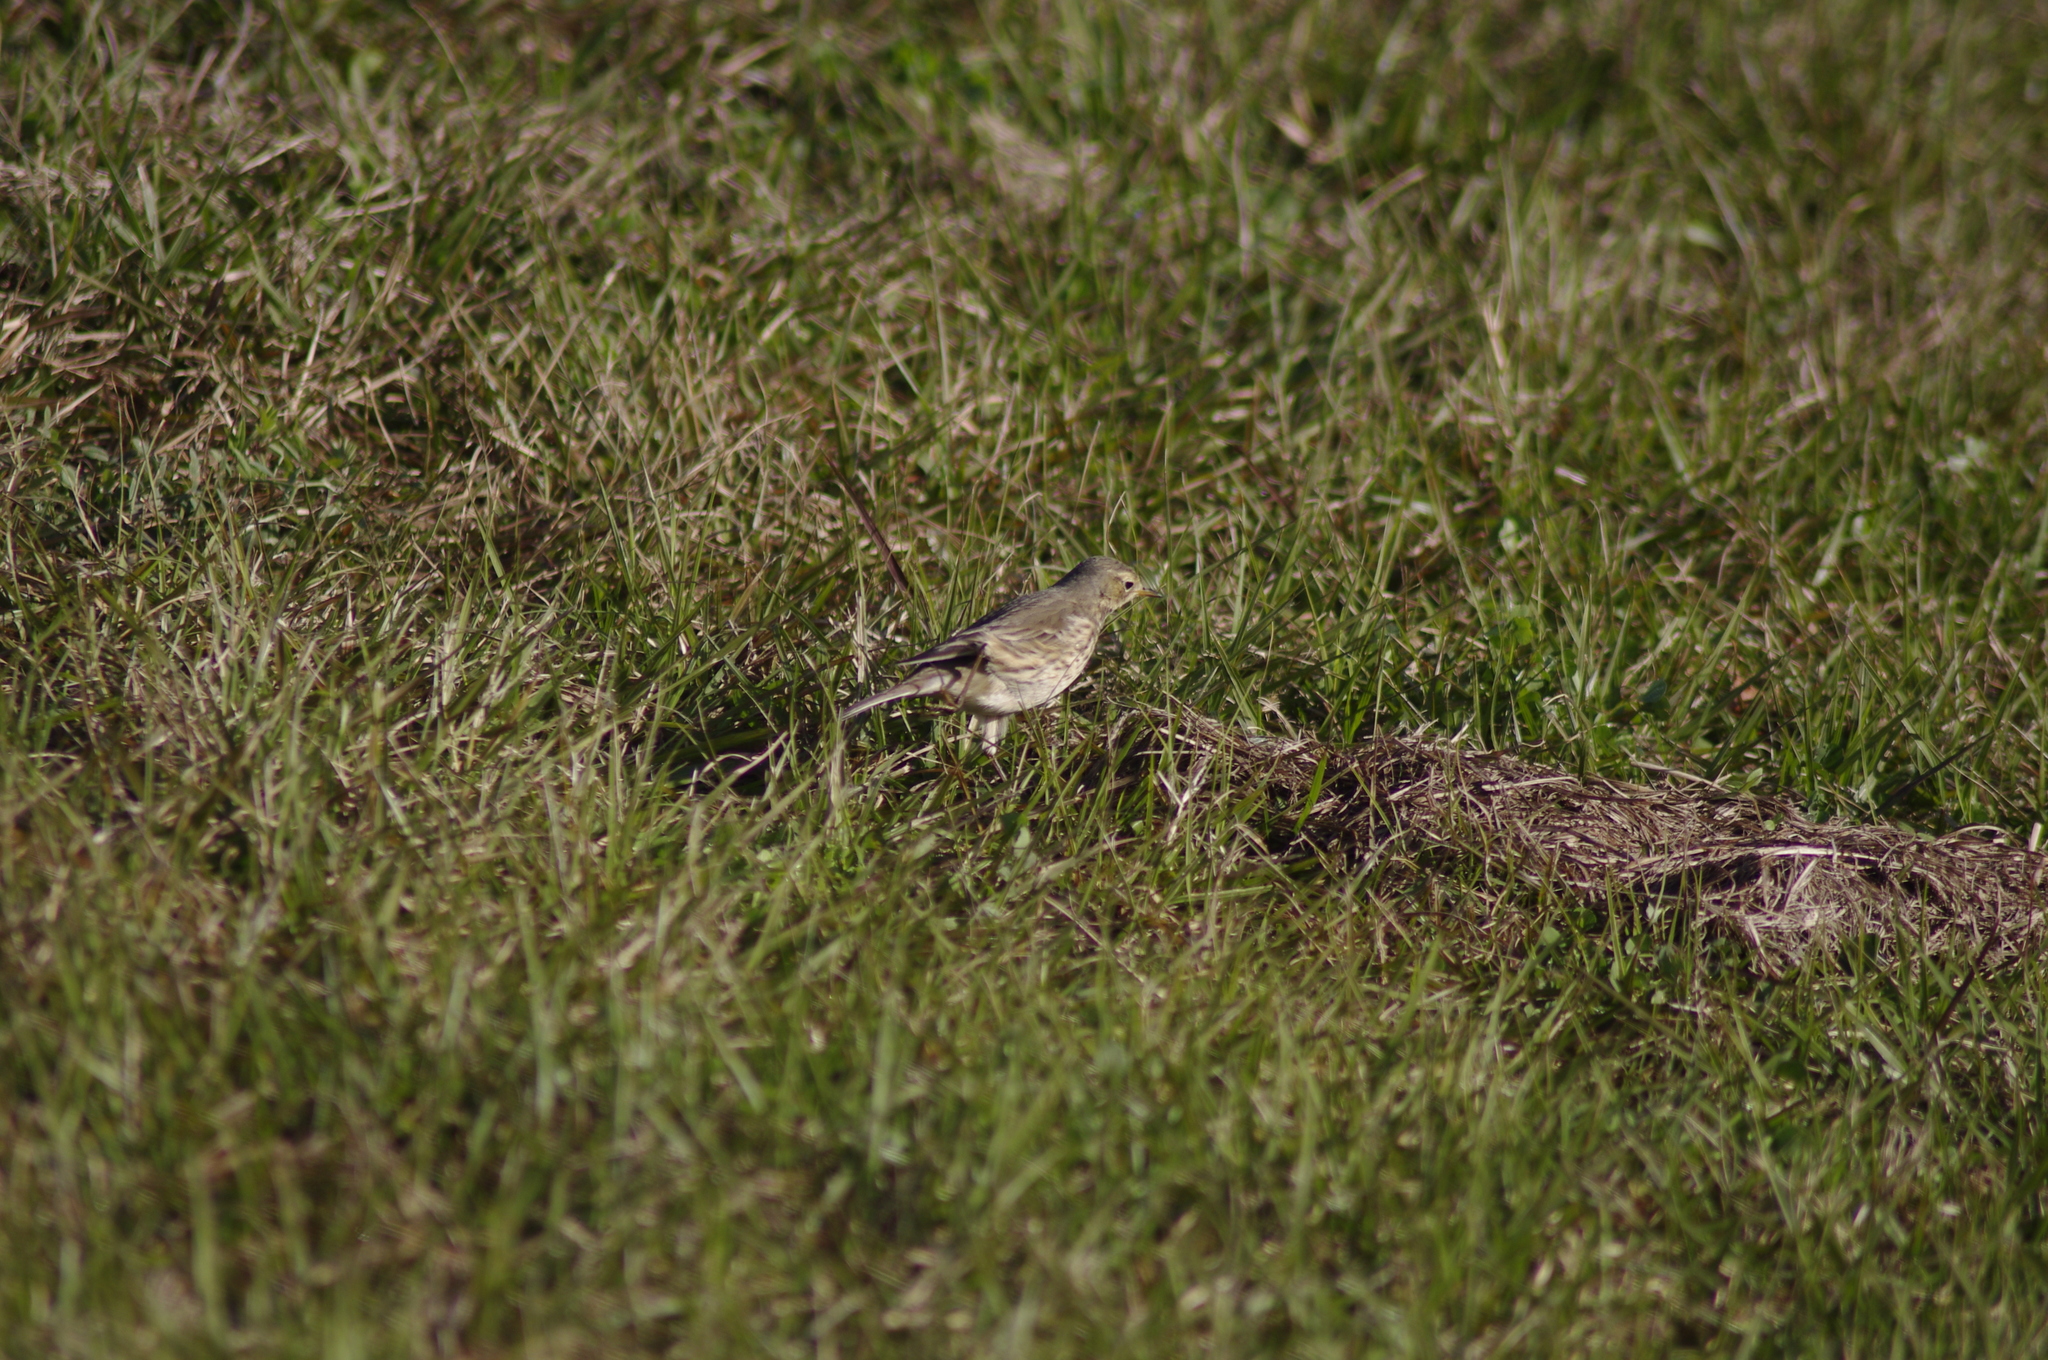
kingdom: Animalia
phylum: Chordata
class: Aves
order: Passeriformes
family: Motacillidae
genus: Anthus
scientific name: Anthus rubescens
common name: Buff-bellied pipit
